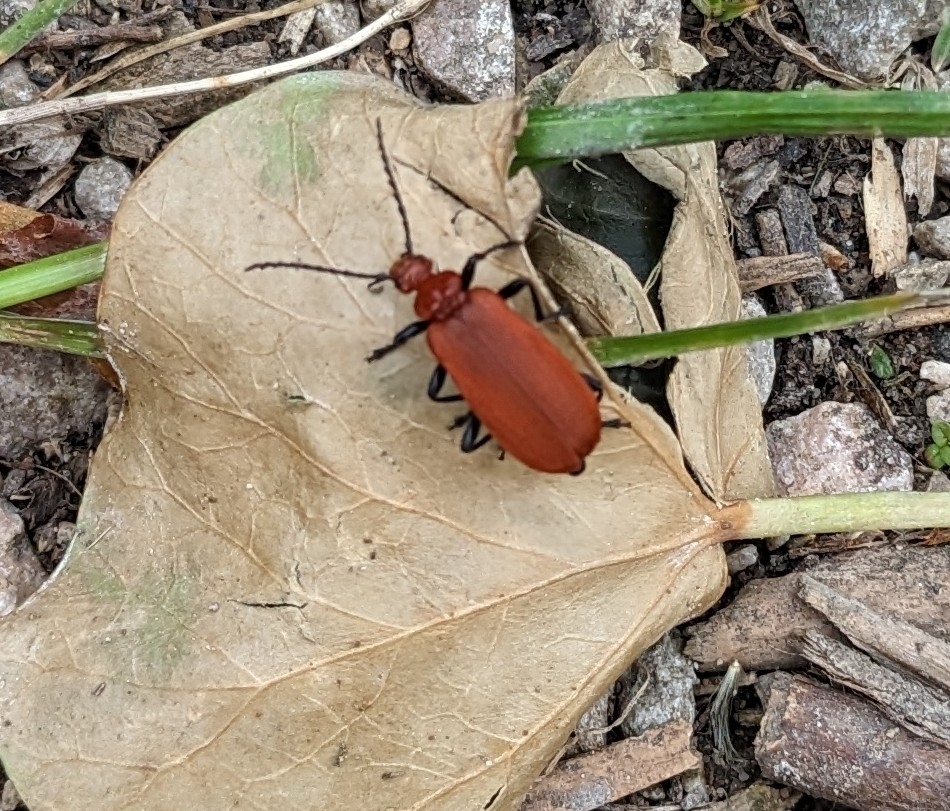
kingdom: Animalia
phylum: Arthropoda
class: Insecta
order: Coleoptera
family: Pyrochroidae
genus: Pyrochroa
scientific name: Pyrochroa serraticornis
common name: Red-headed cardinal beetle
